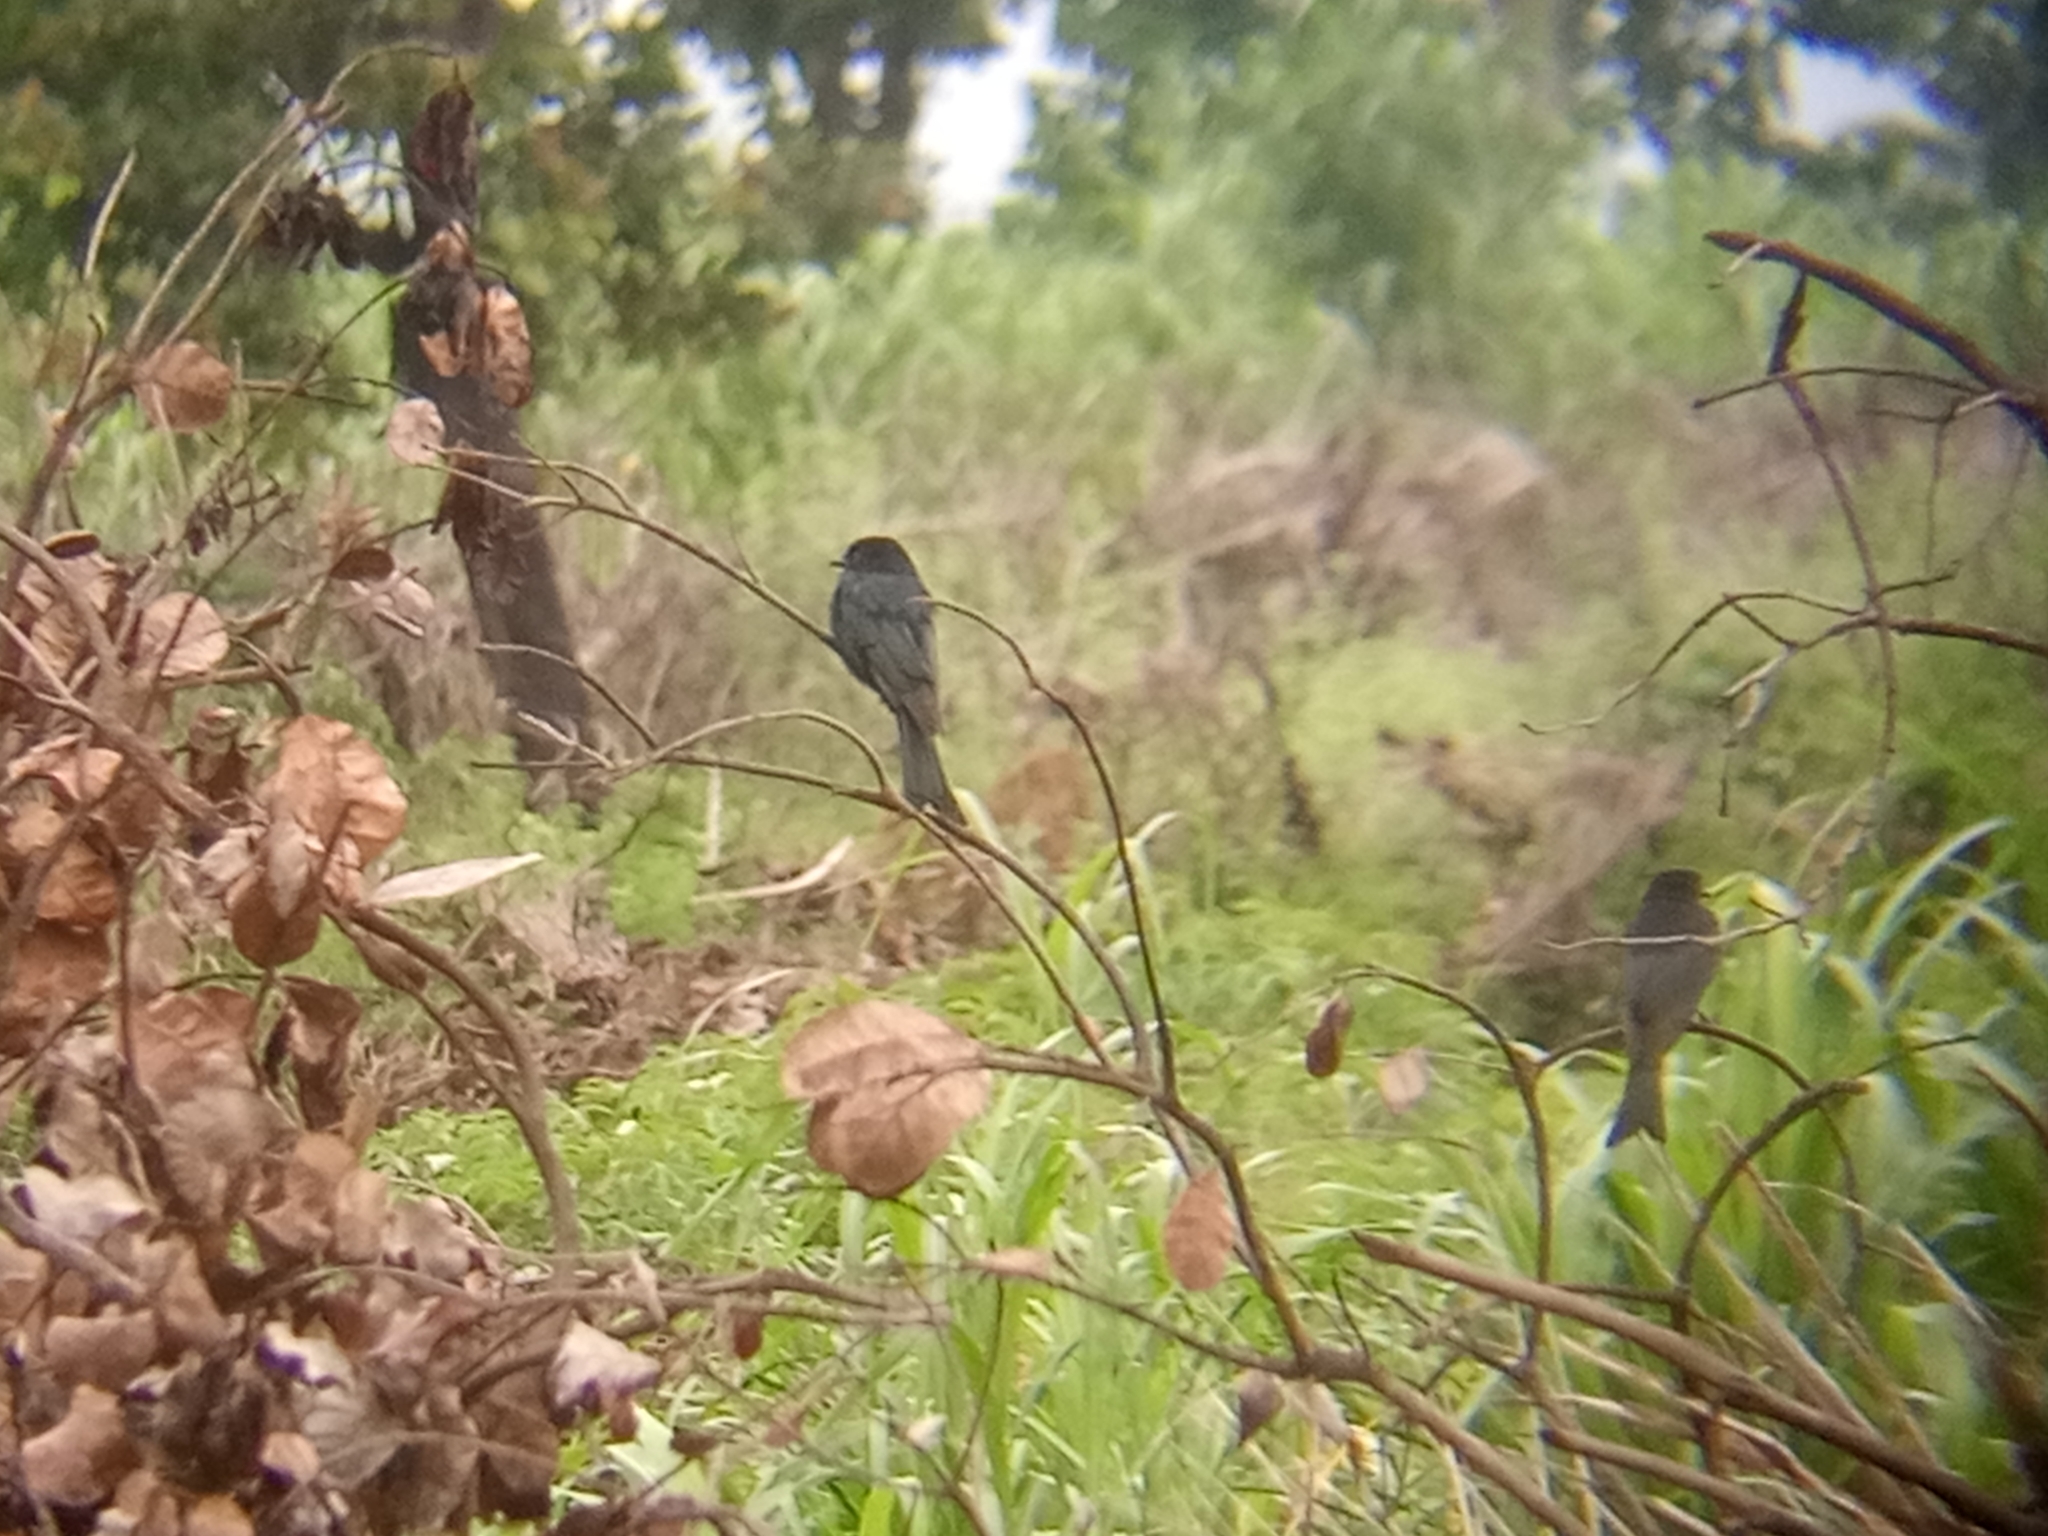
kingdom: Animalia
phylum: Chordata
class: Aves
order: Passeriformes
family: Dicruridae
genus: Dicrurus
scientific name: Dicrurus adsimilis
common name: Fork-tailed drongo
